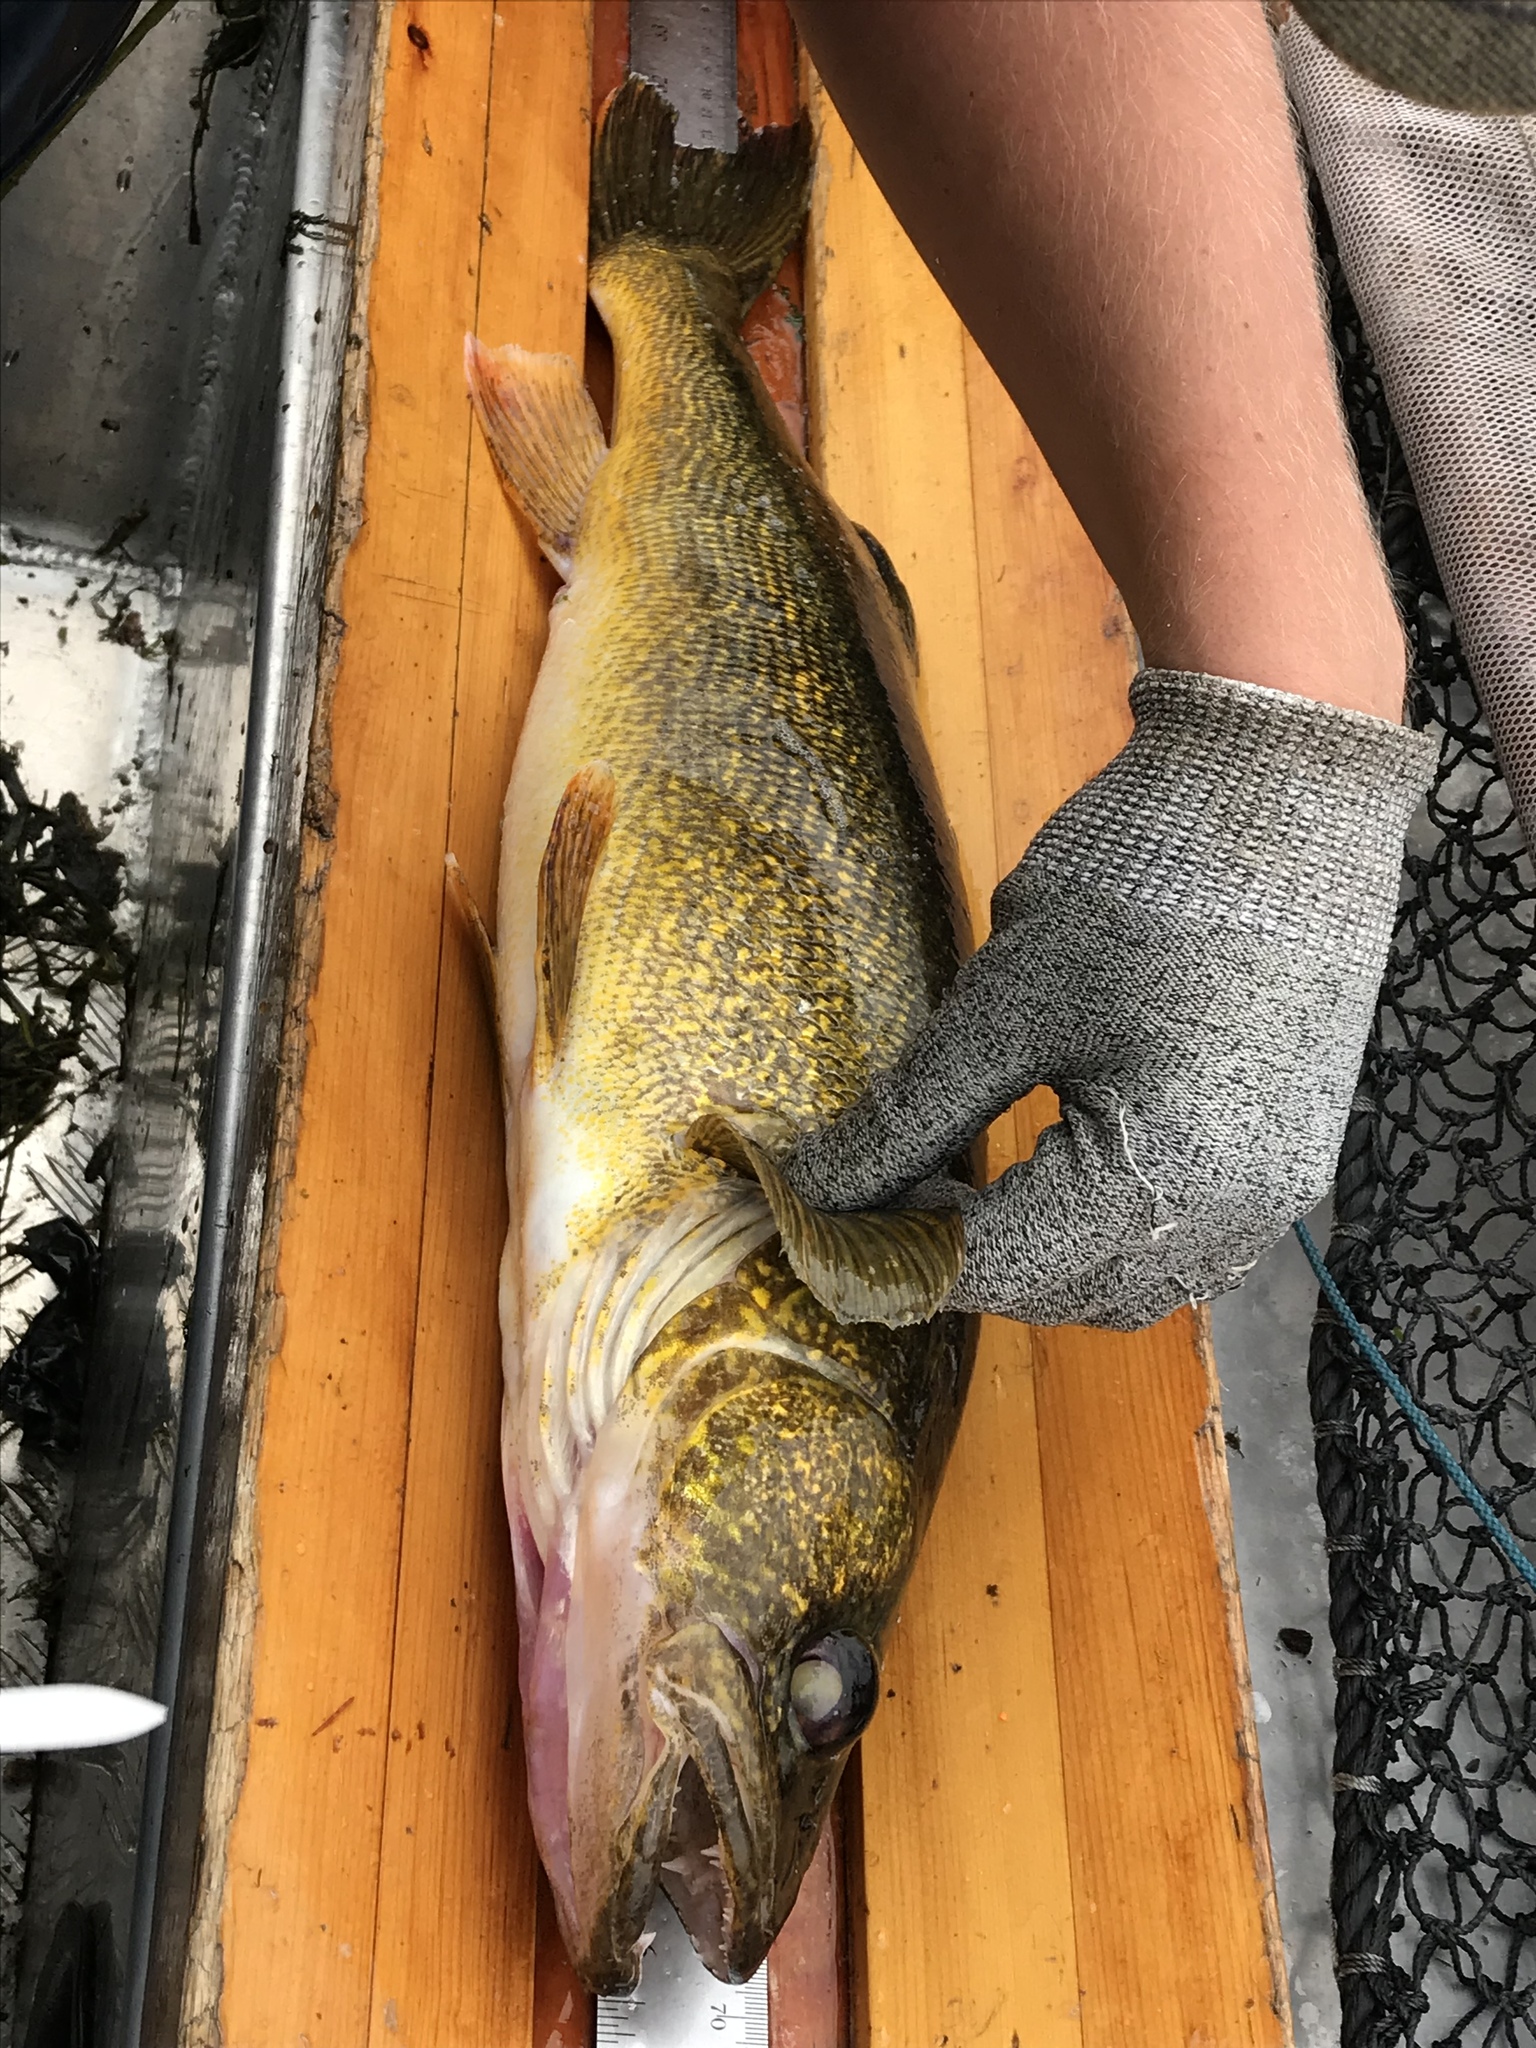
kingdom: Animalia
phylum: Chordata
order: Perciformes
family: Percidae
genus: Sander
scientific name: Sander vitreus
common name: Walleye
